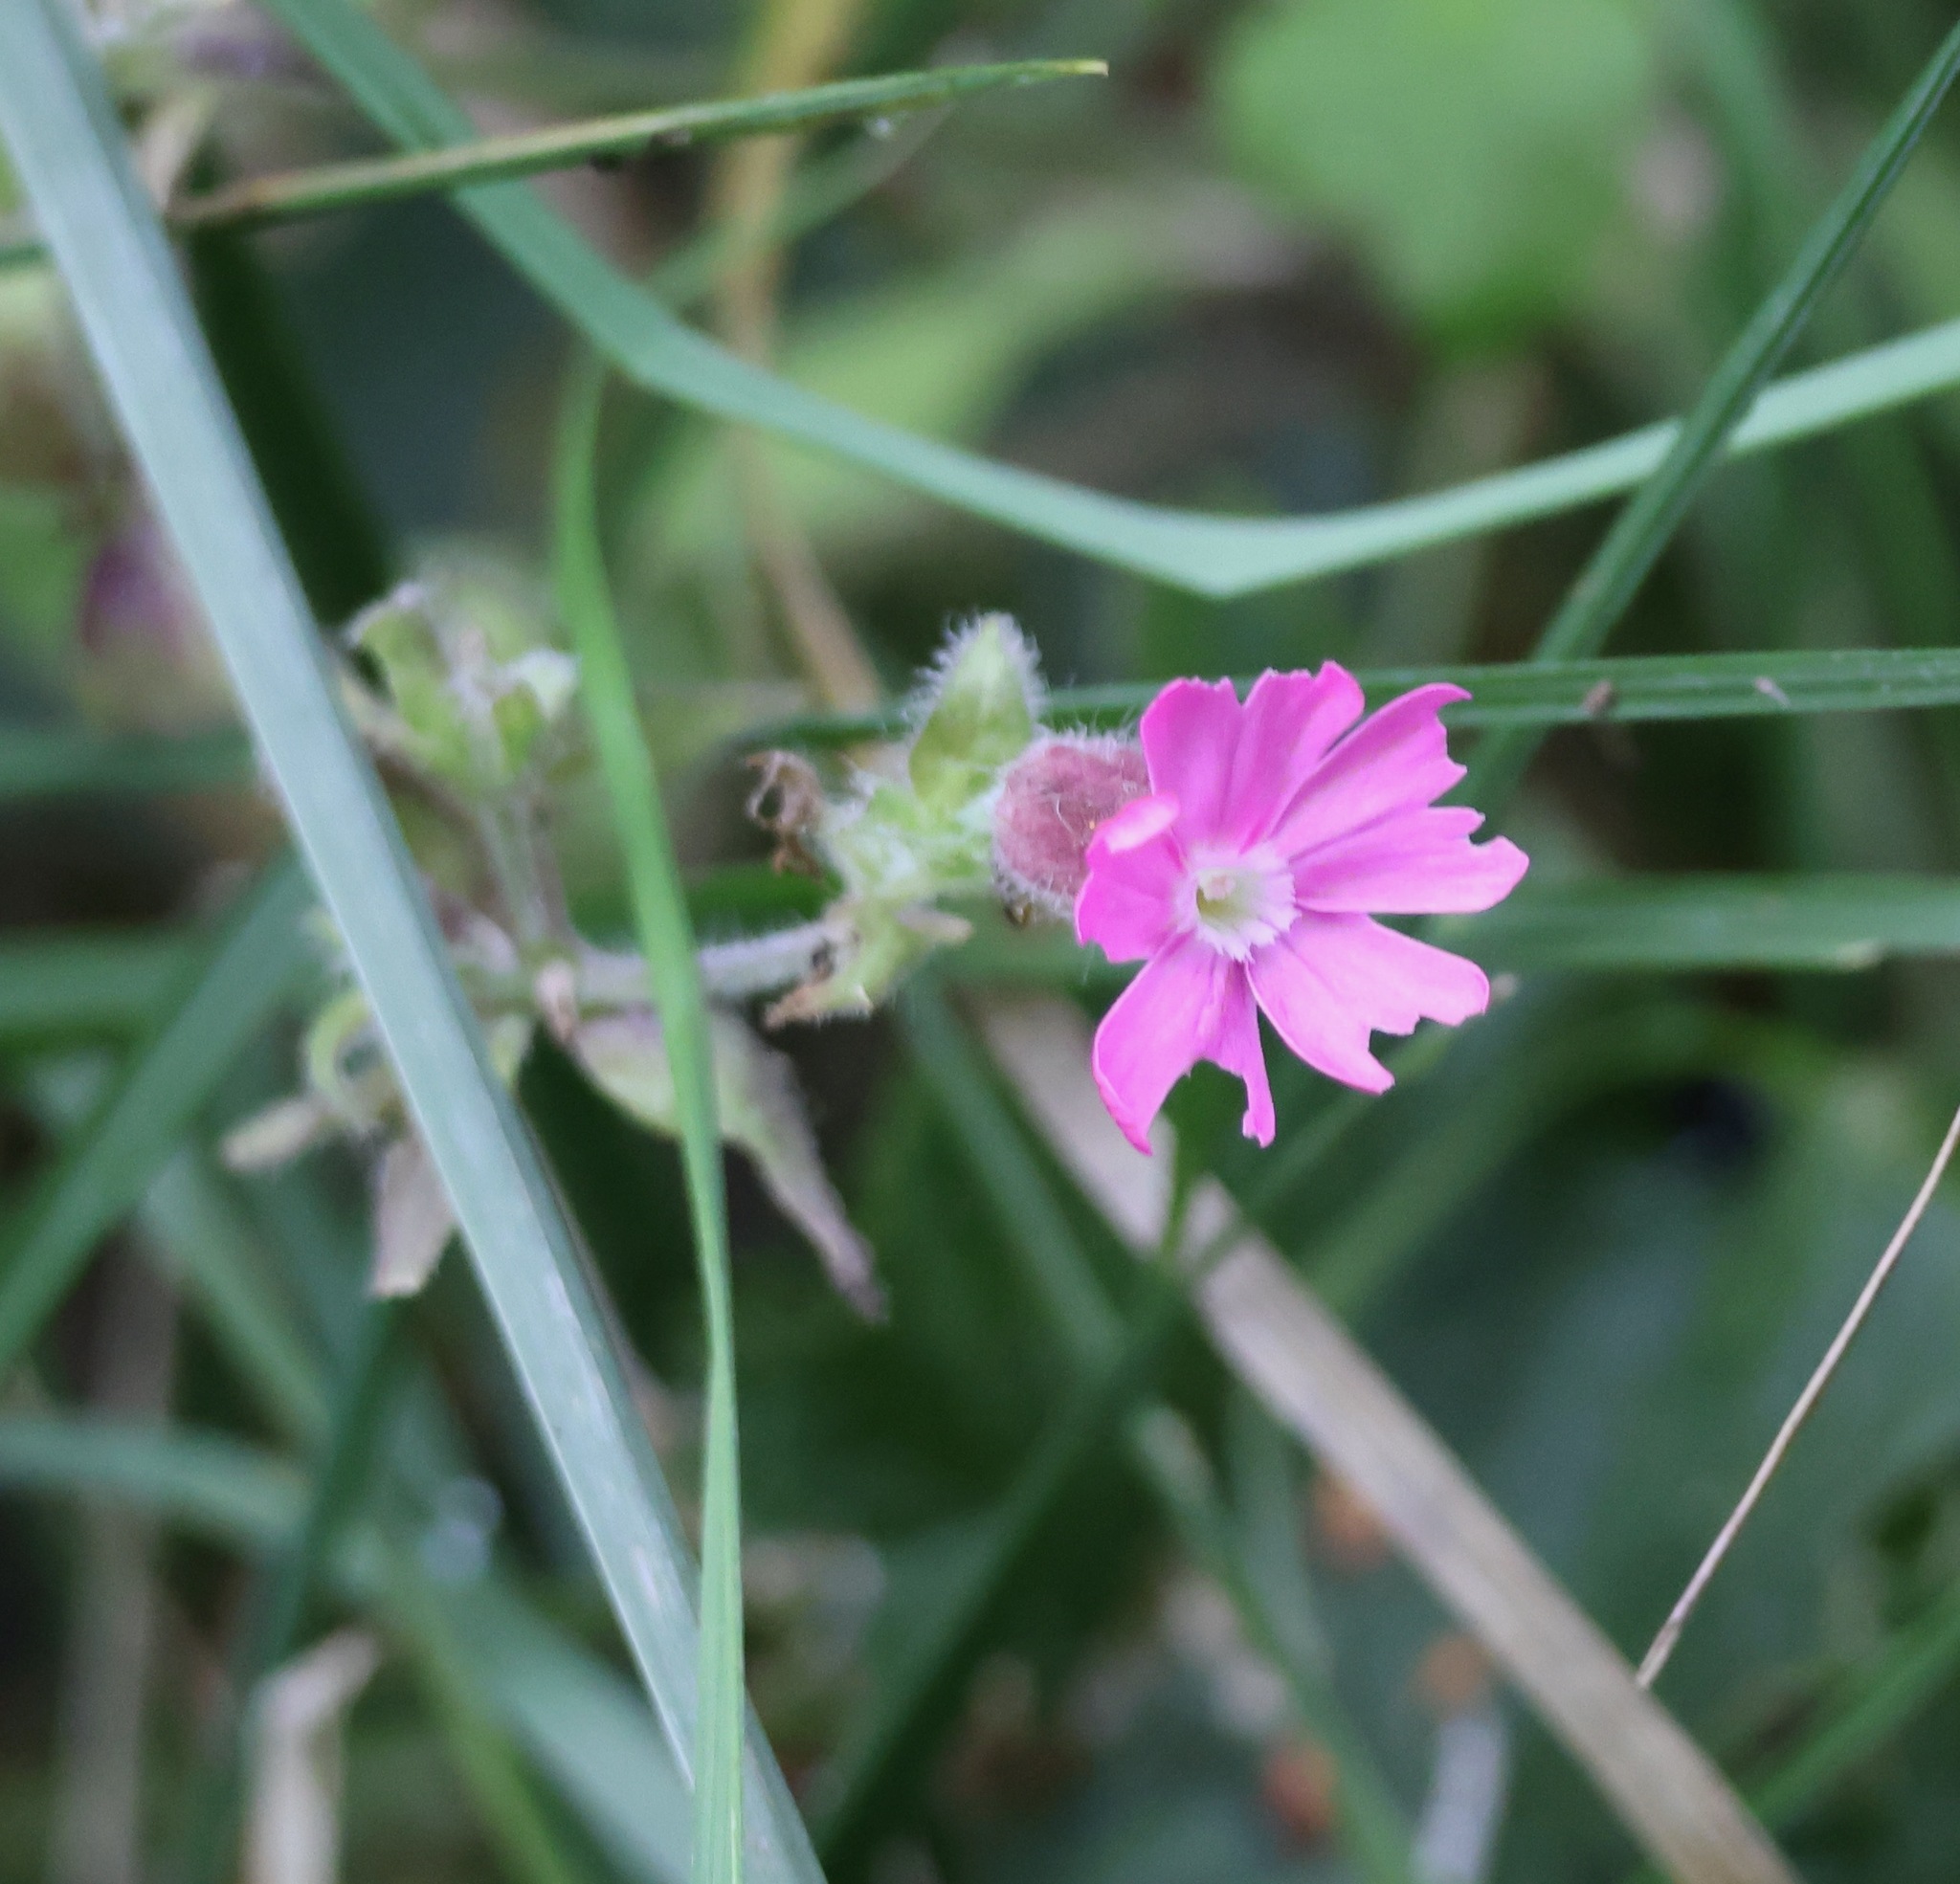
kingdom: Plantae
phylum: Tracheophyta
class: Magnoliopsida
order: Caryophyllales
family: Caryophyllaceae
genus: Silene
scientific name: Silene dioica
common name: Red campion
